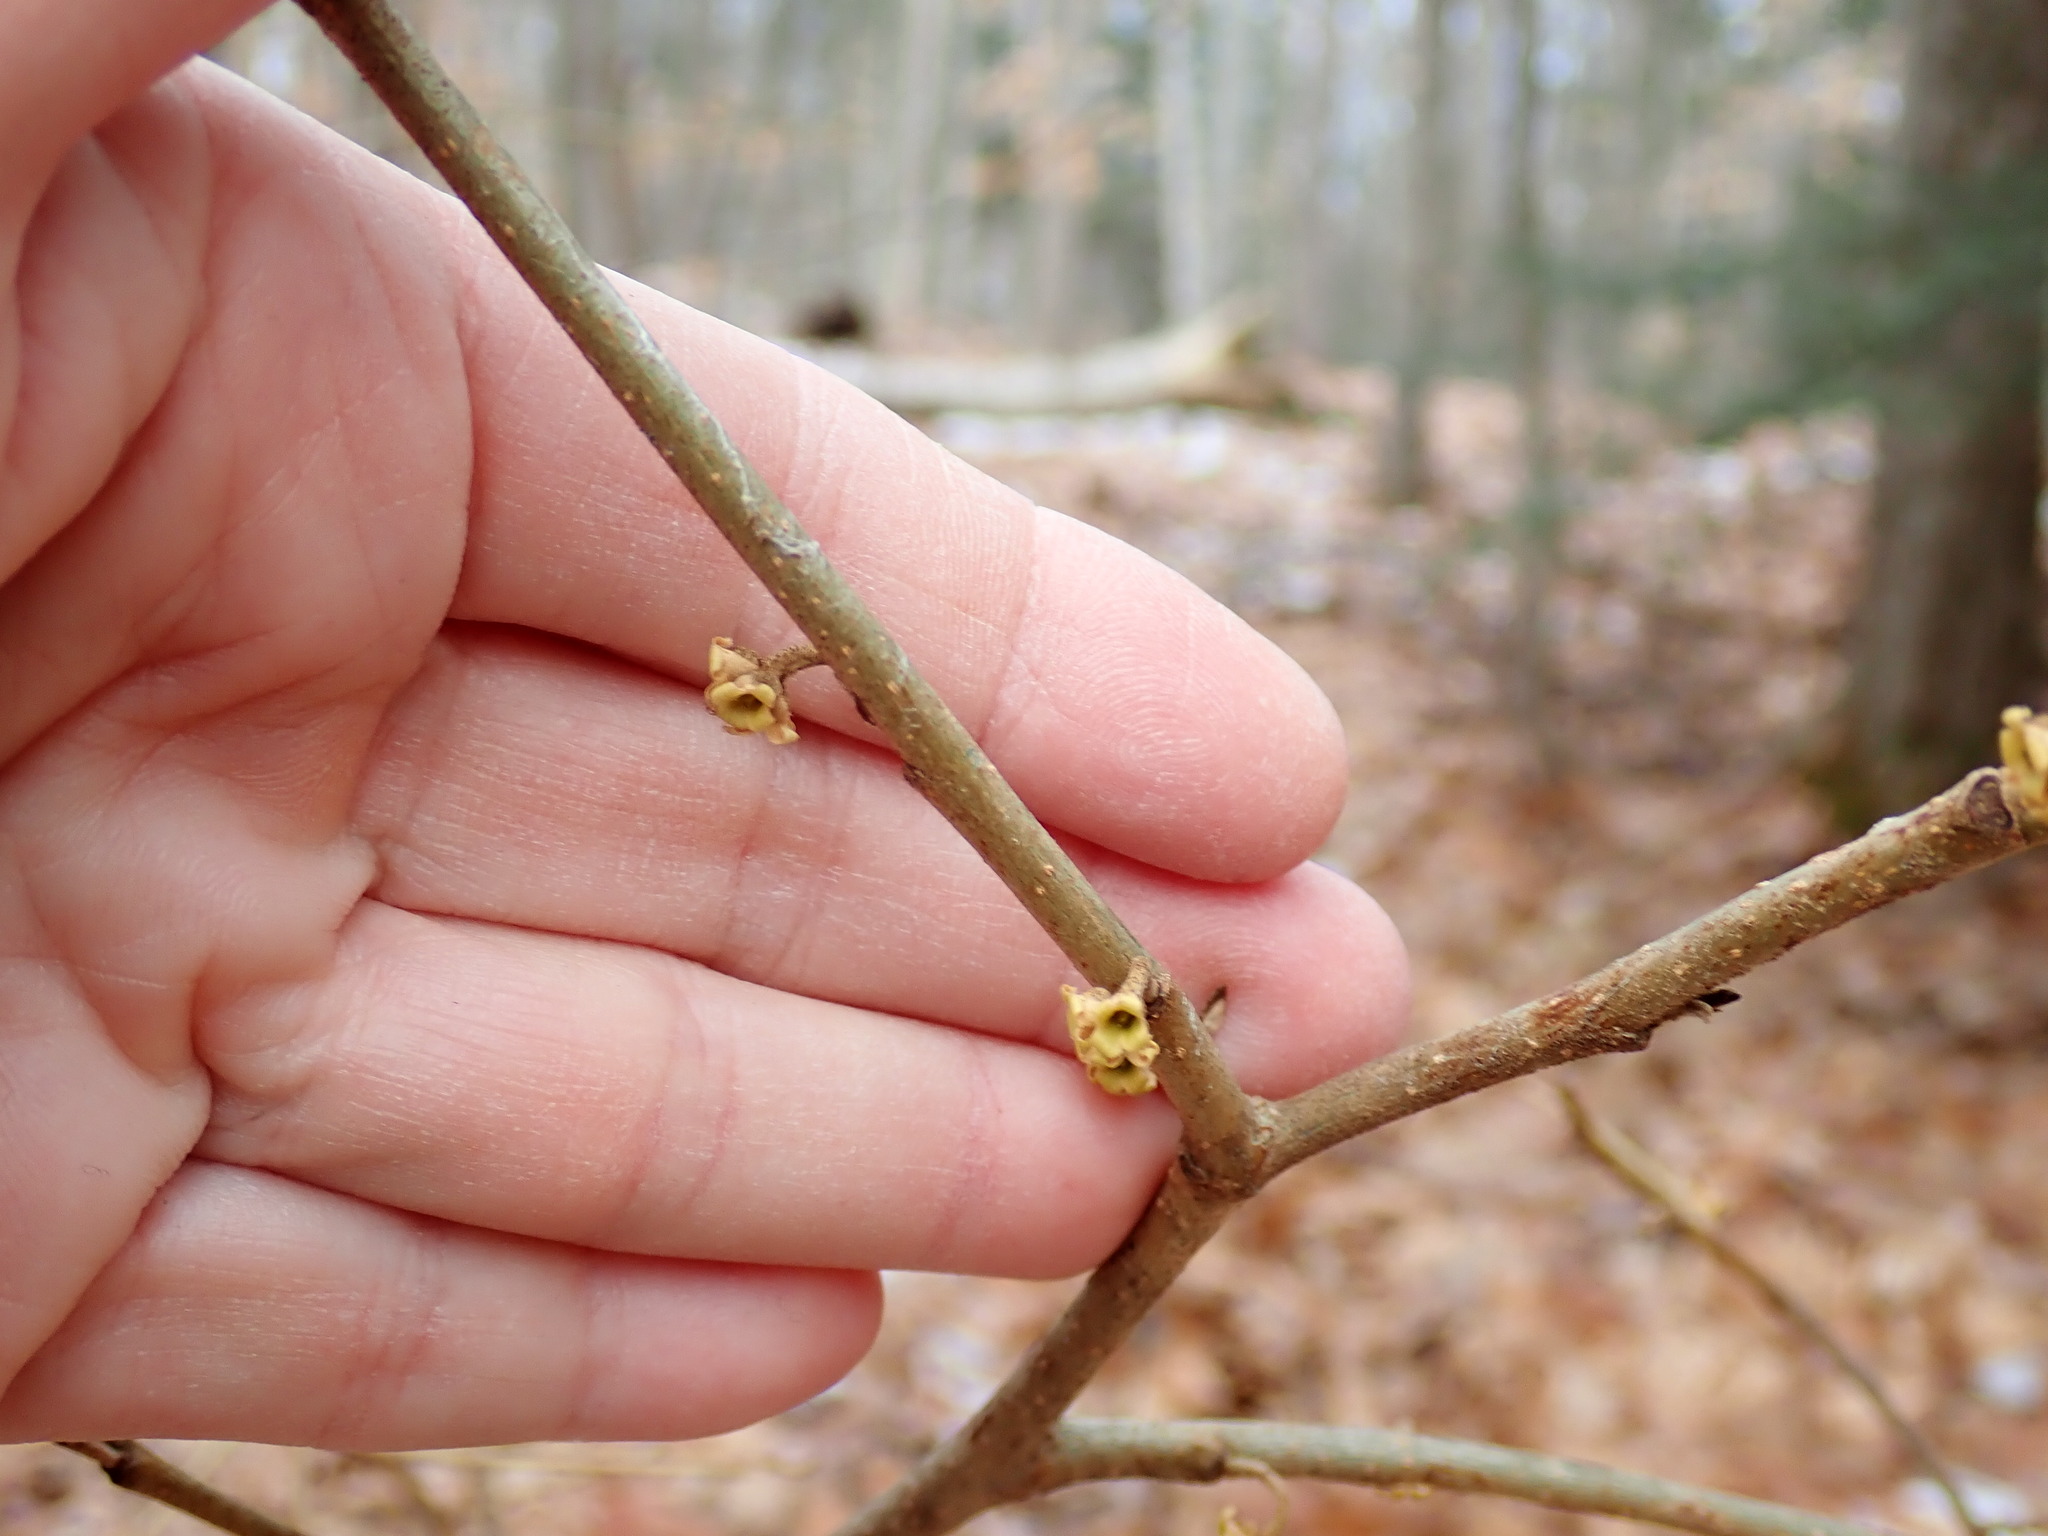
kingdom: Plantae
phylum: Tracheophyta
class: Magnoliopsida
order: Saxifragales
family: Hamamelidaceae
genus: Hamamelis
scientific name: Hamamelis virginiana
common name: Witch-hazel
